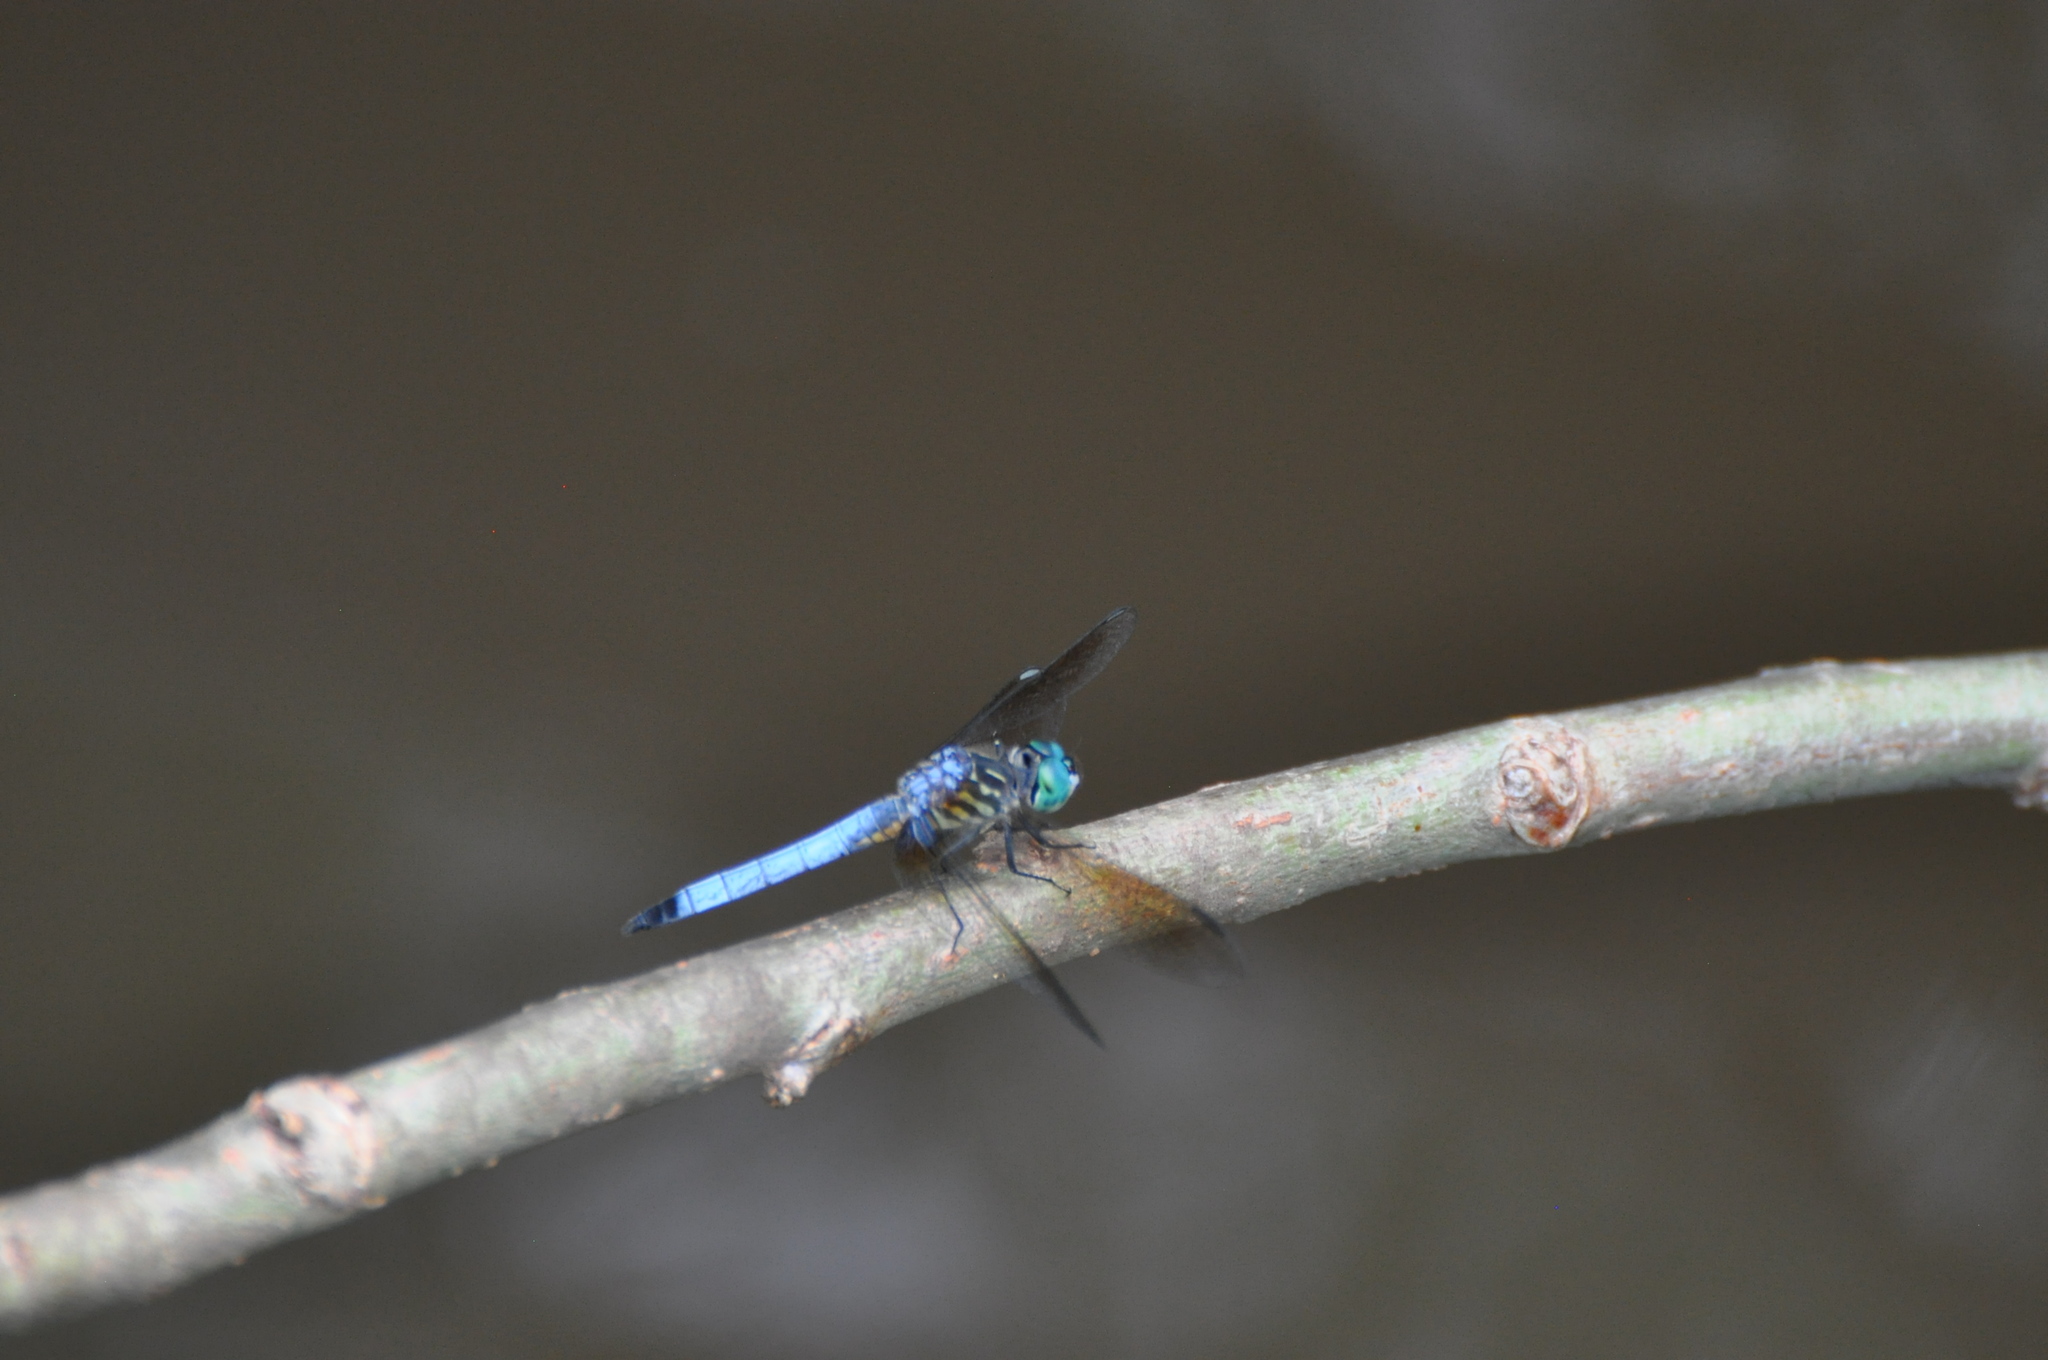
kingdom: Animalia
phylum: Arthropoda
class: Insecta
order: Odonata
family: Libellulidae
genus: Pachydiplax
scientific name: Pachydiplax longipennis
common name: Blue dasher
